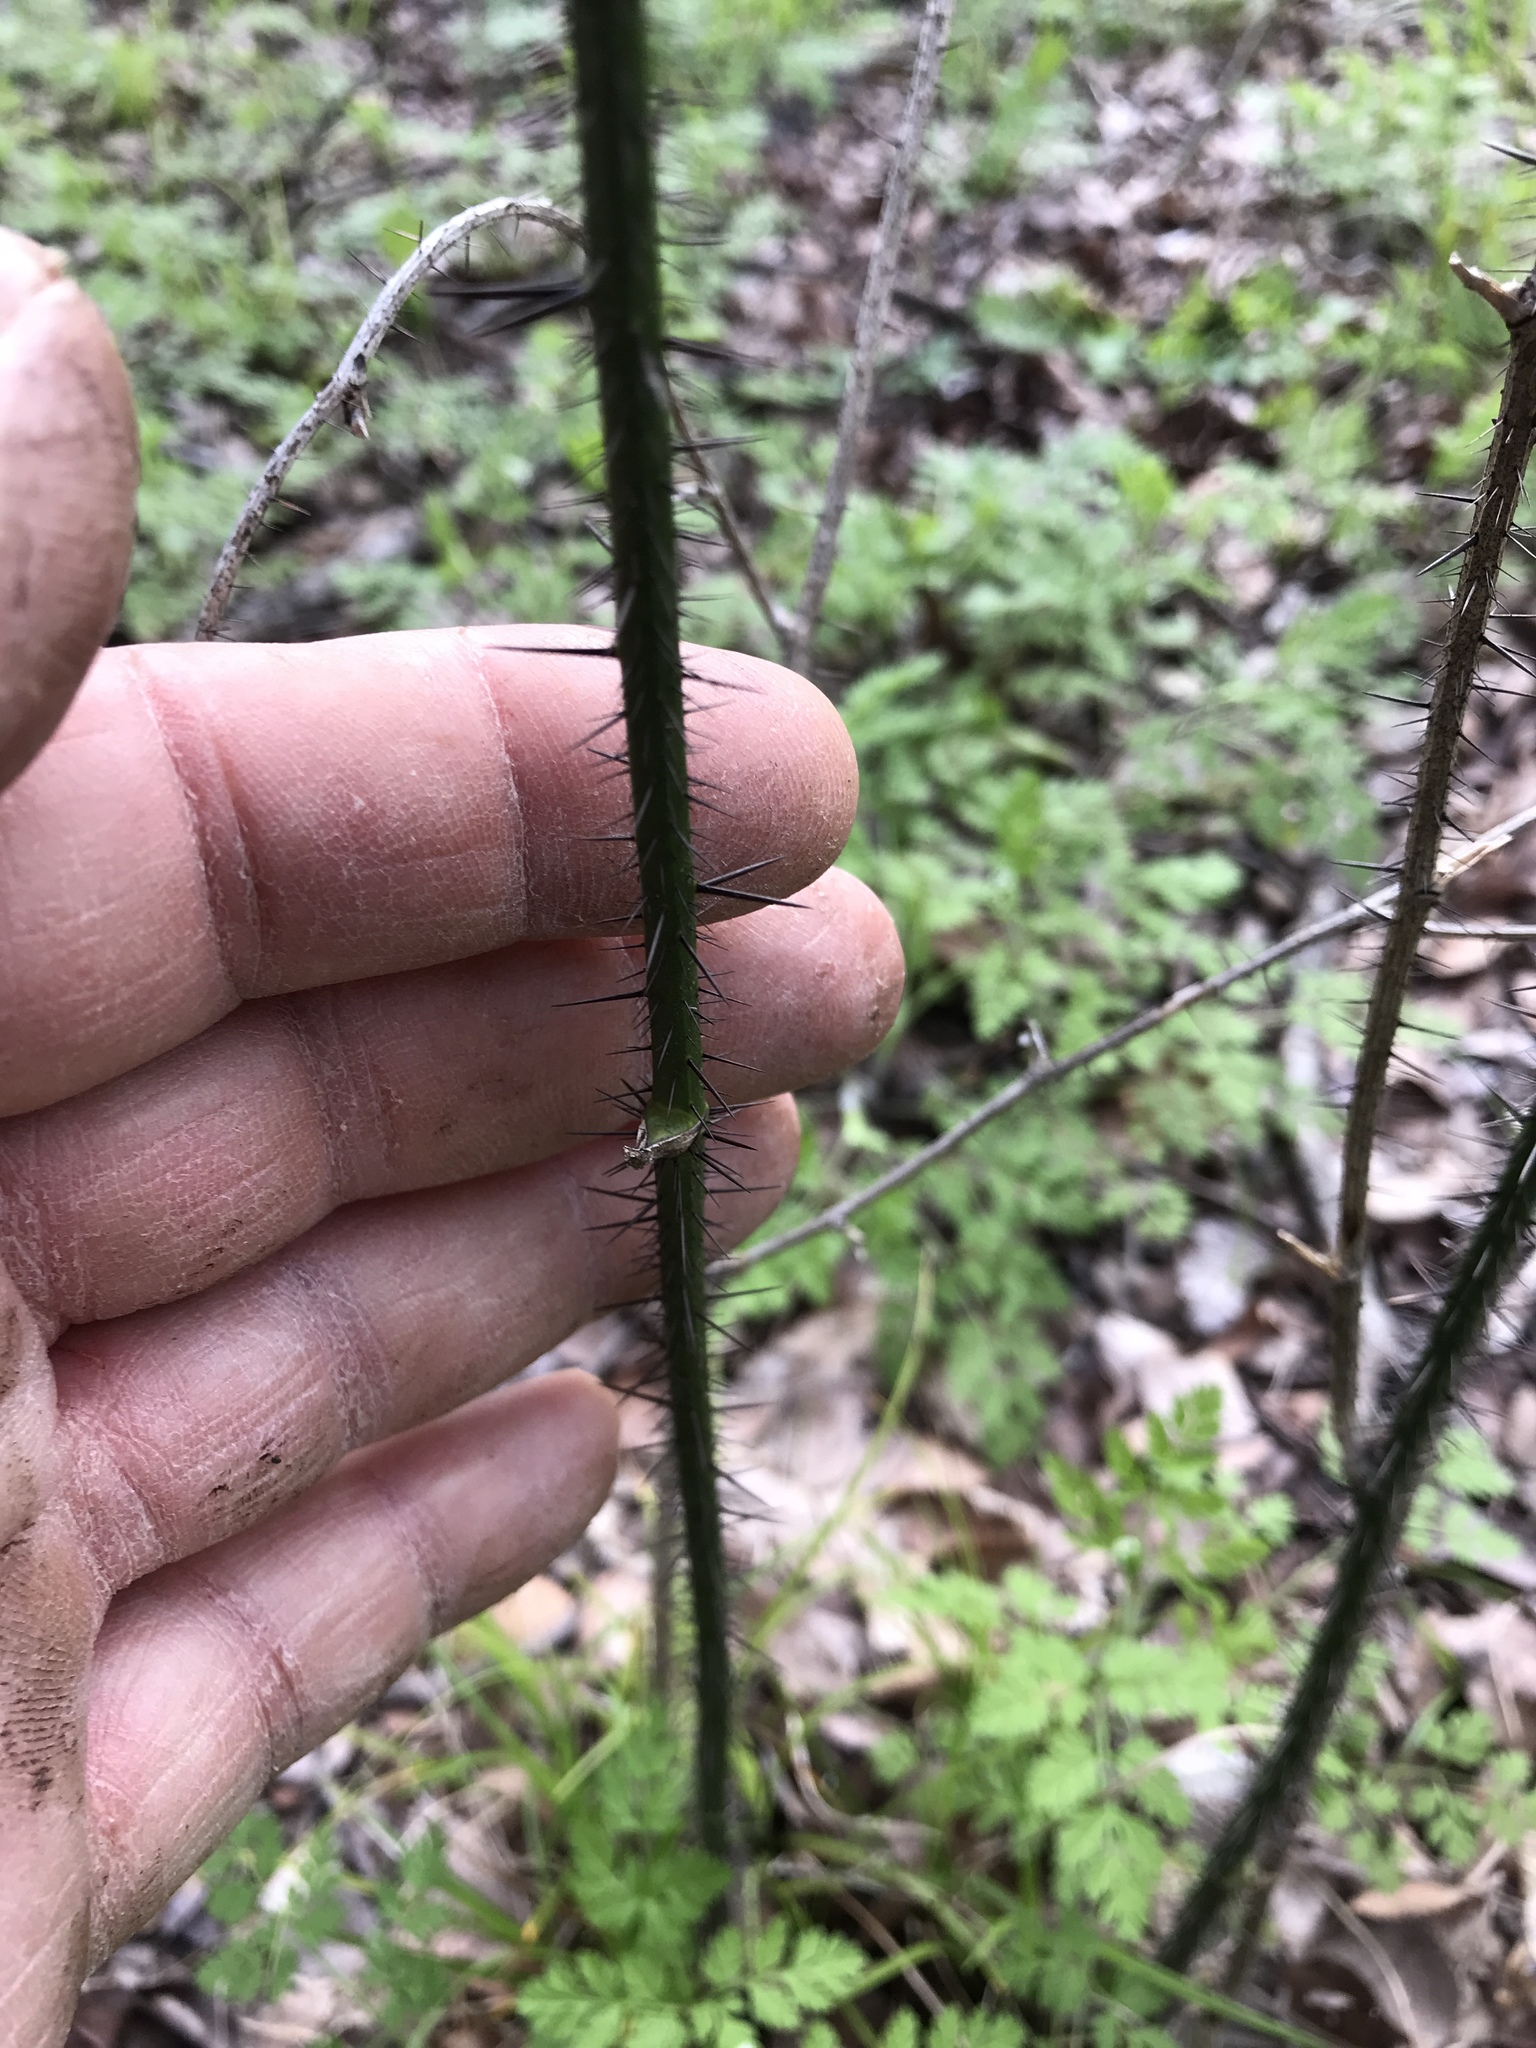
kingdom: Plantae
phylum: Tracheophyta
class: Liliopsida
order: Liliales
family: Smilacaceae
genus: Smilax
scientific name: Smilax tamnoides
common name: Hellfetter
